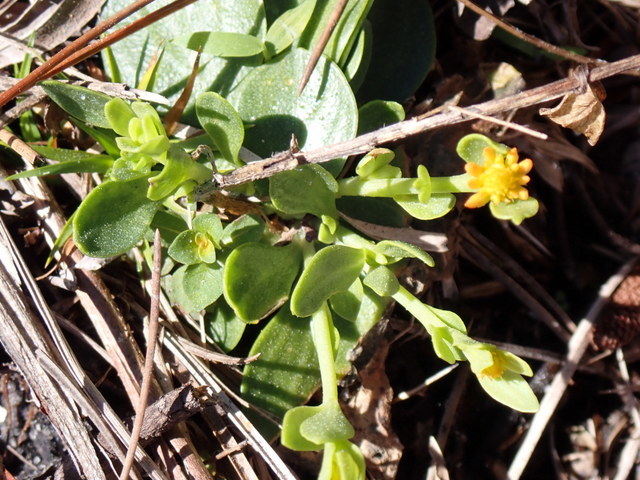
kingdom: Plantae
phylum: Tracheophyta
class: Magnoliopsida
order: Fabales
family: Polygalaceae
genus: Polygala
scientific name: Polygala lutea
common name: Orange milkwort
